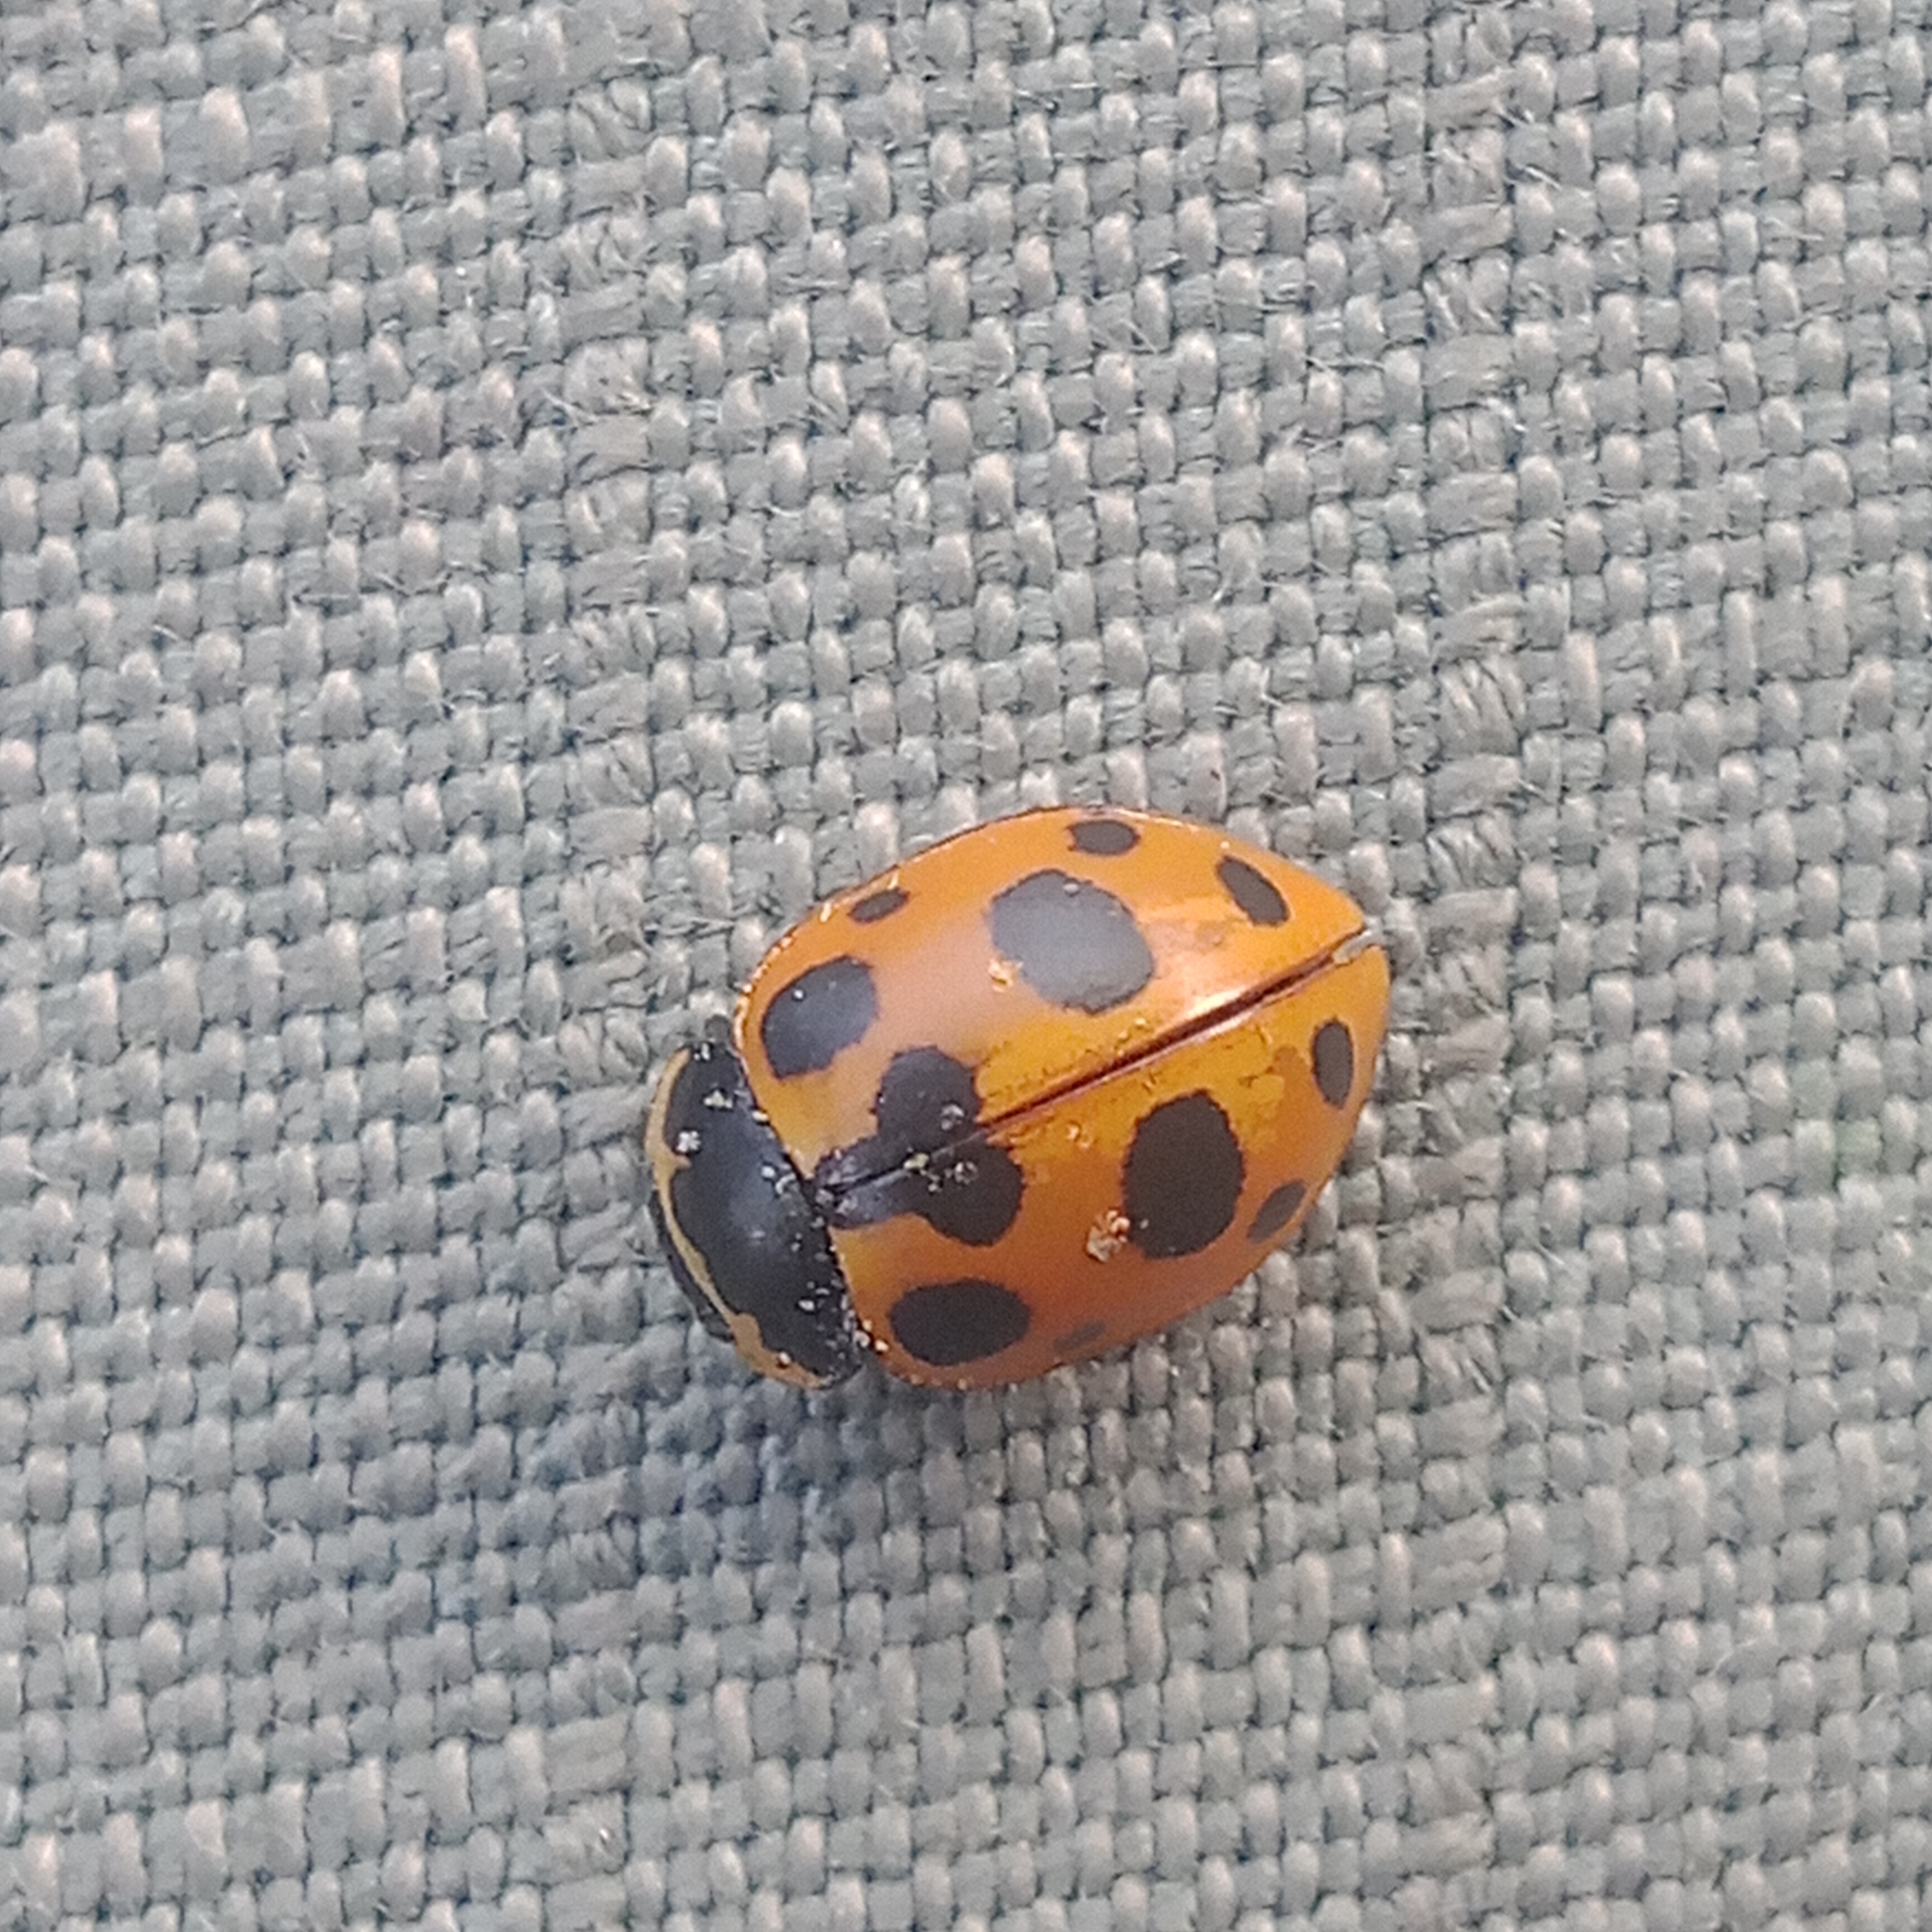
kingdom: Animalia
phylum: Arthropoda
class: Insecta
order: Coleoptera
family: Coccinellidae
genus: Ceratomegilla
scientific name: Ceratomegilla notata
